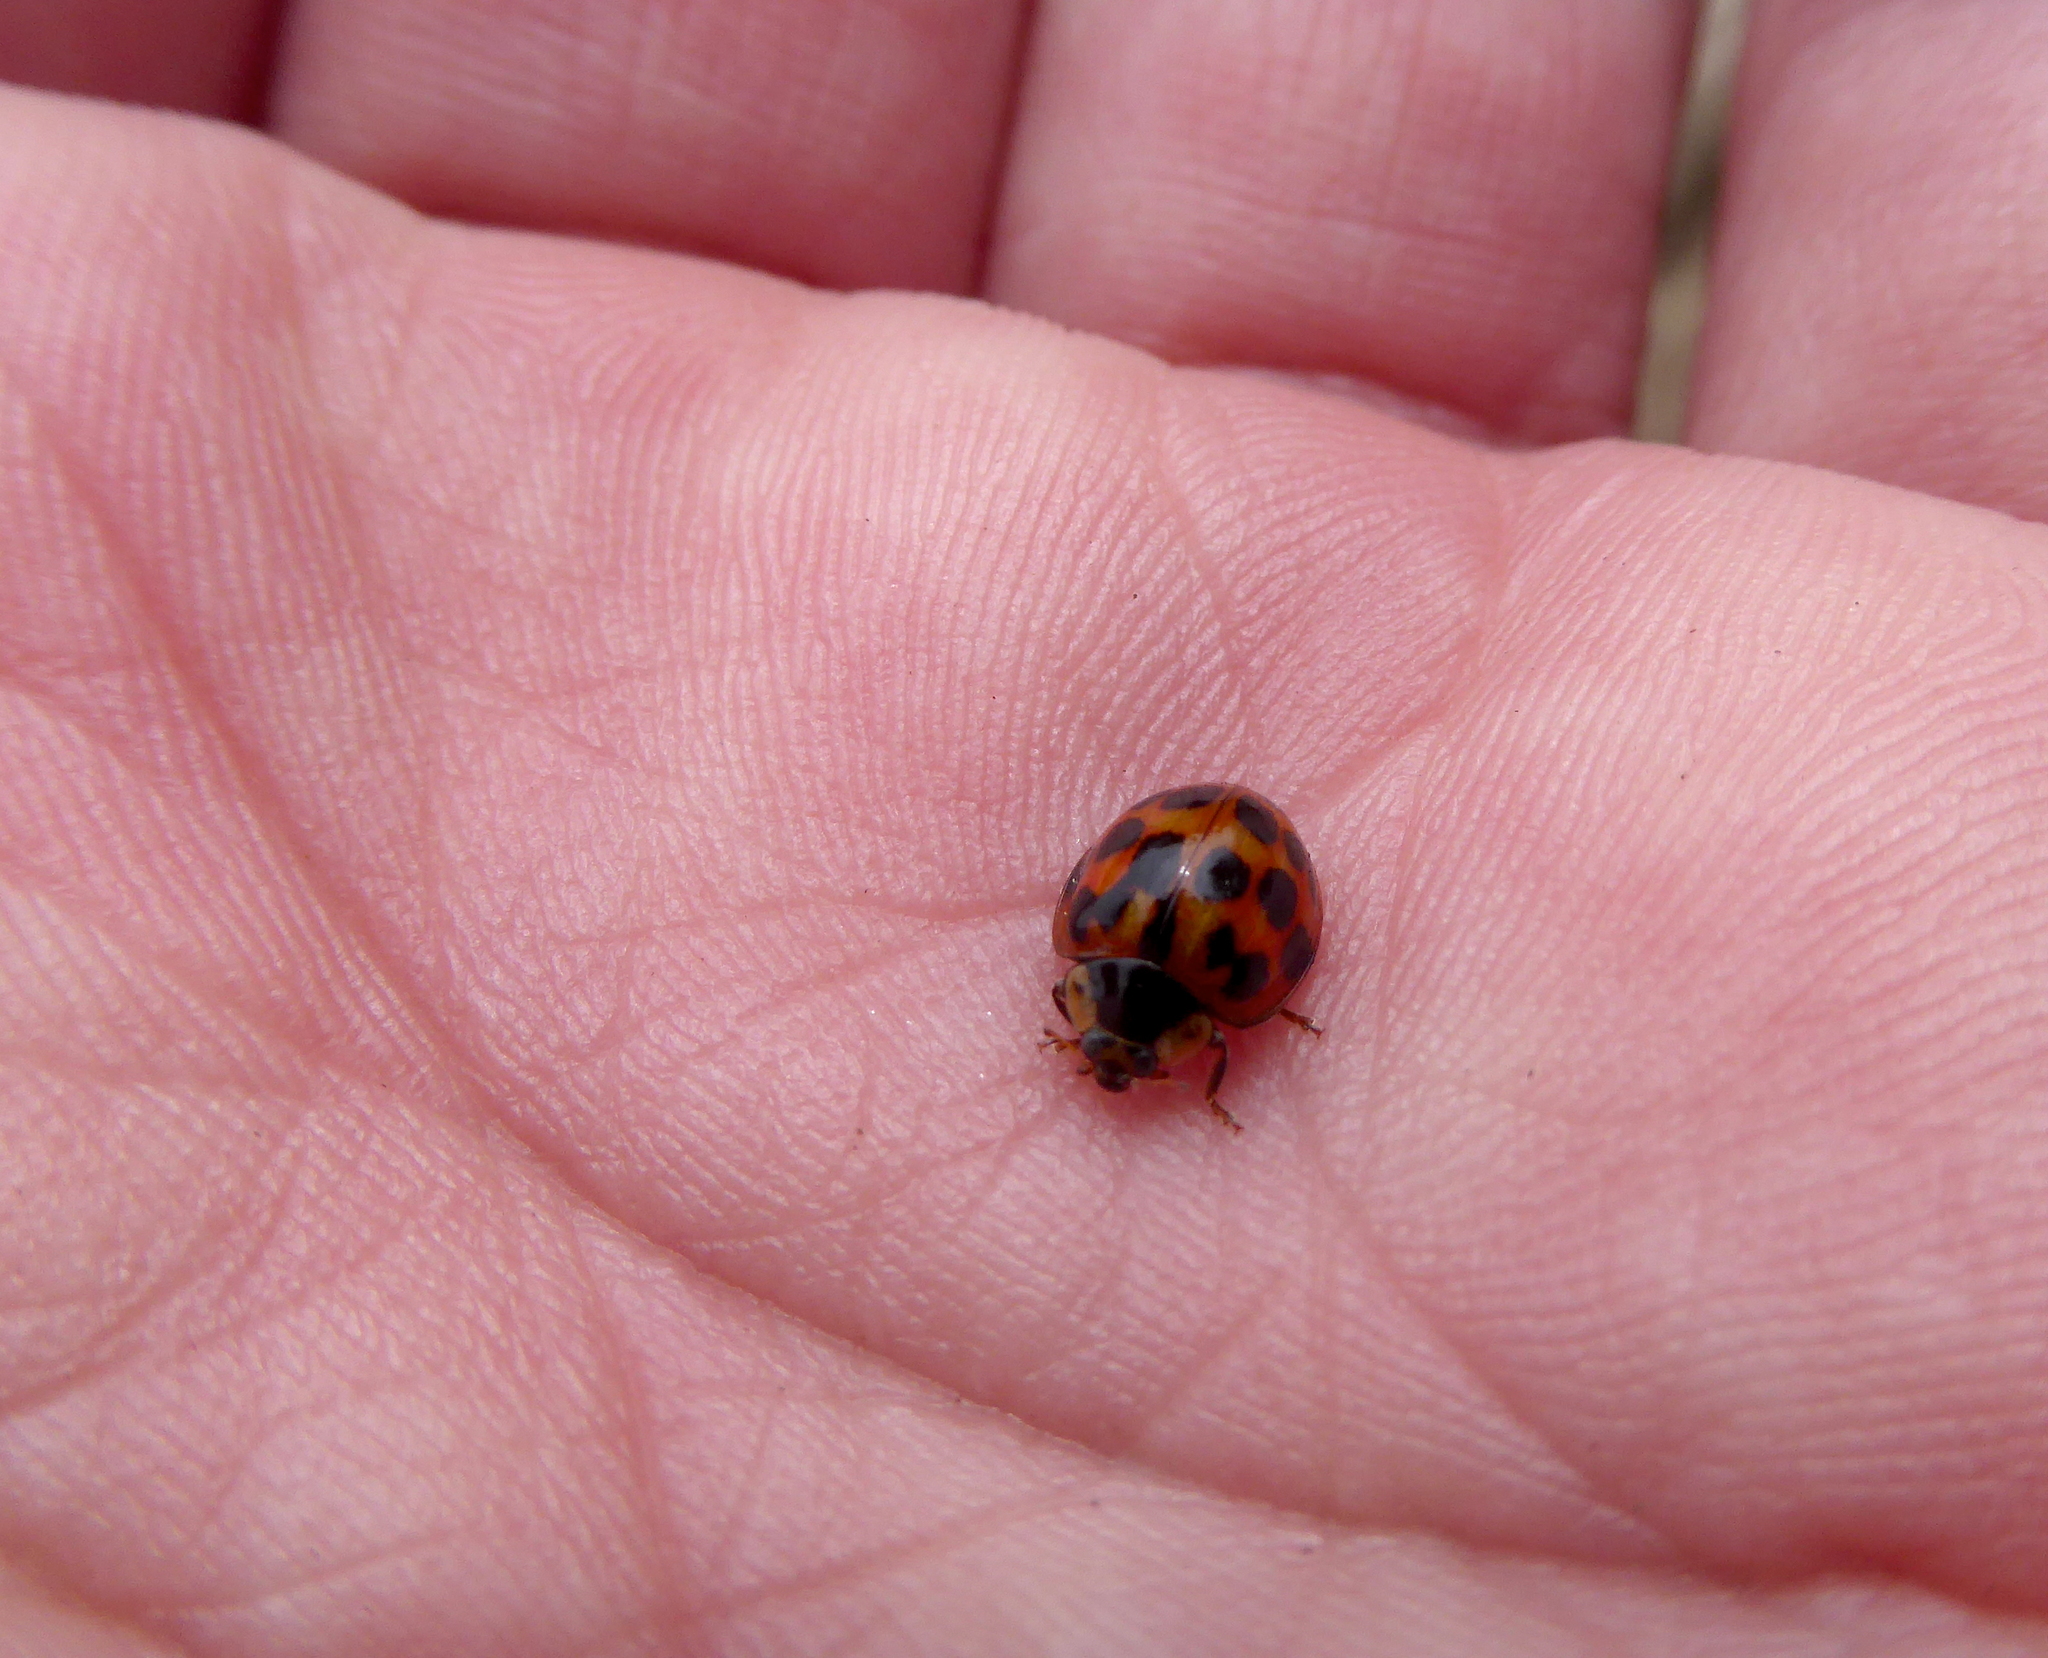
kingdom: Animalia
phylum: Arthropoda
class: Insecta
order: Coleoptera
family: Coccinellidae
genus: Harmonia
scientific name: Harmonia axyridis
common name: Harlequin ladybird
